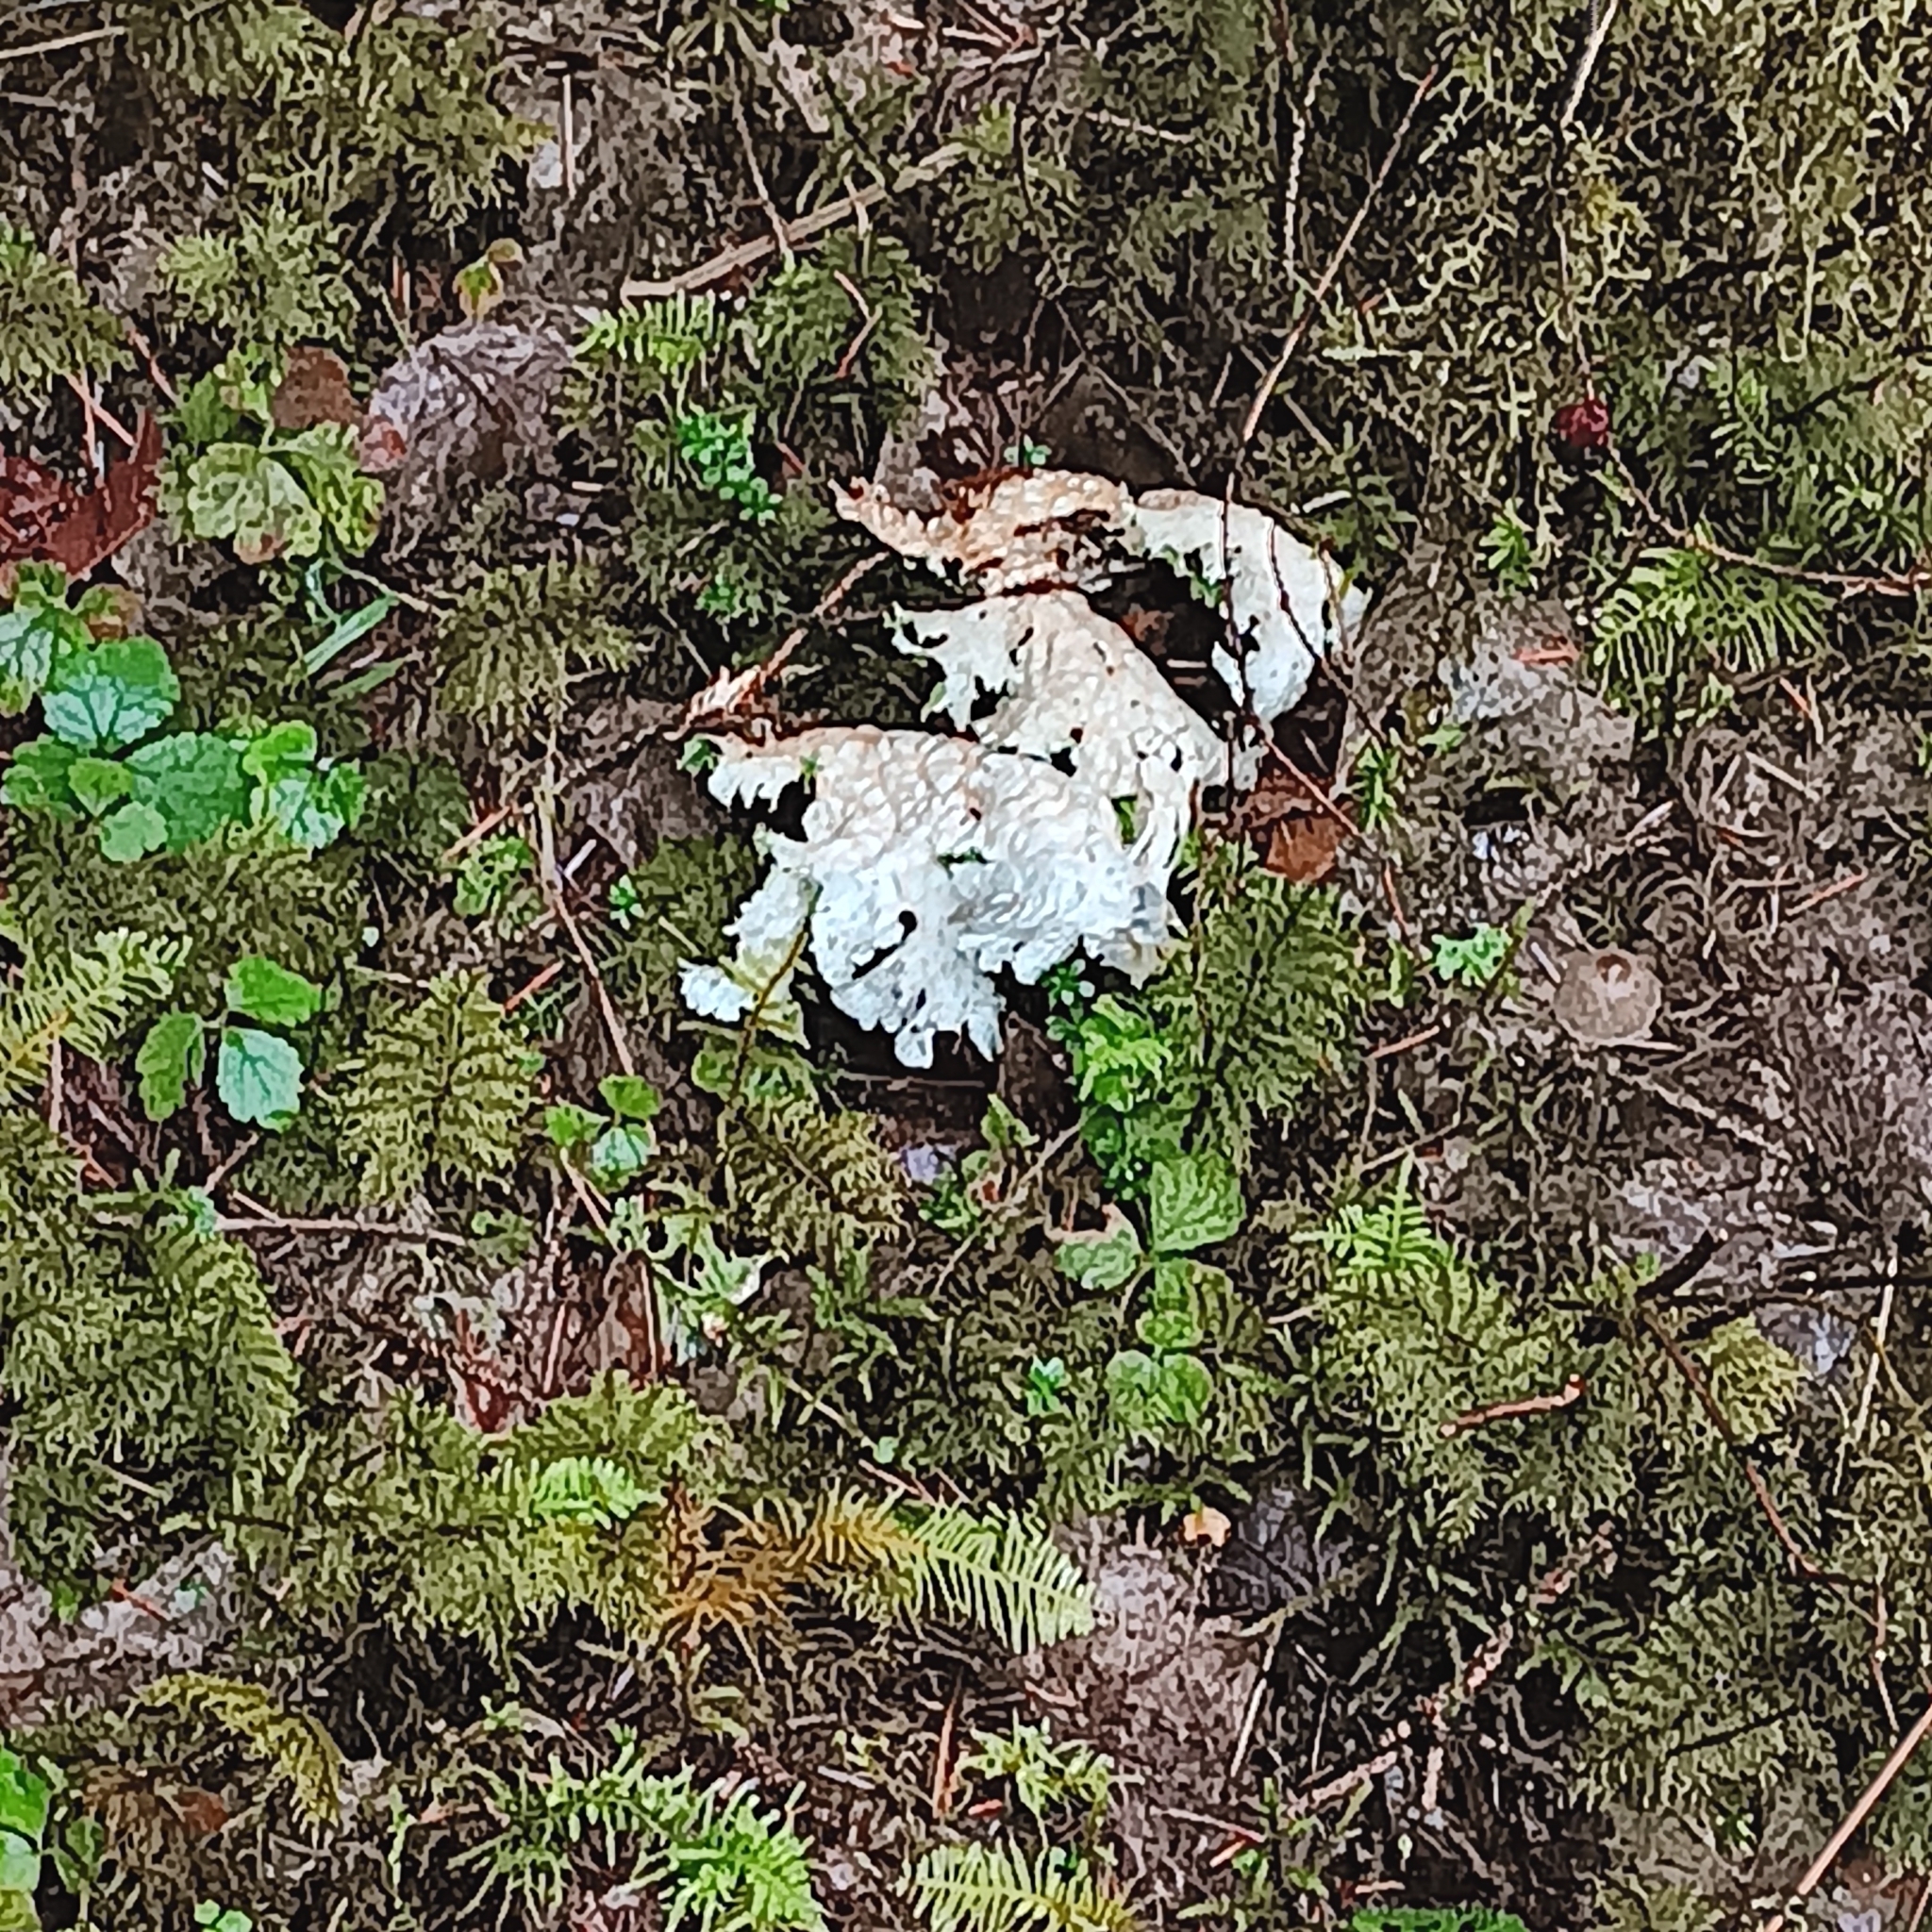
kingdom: Fungi
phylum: Ascomycota
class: Lecanoromycetes
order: Peltigerales
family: Lobariaceae
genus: Lobaria
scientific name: Lobaria oregana
